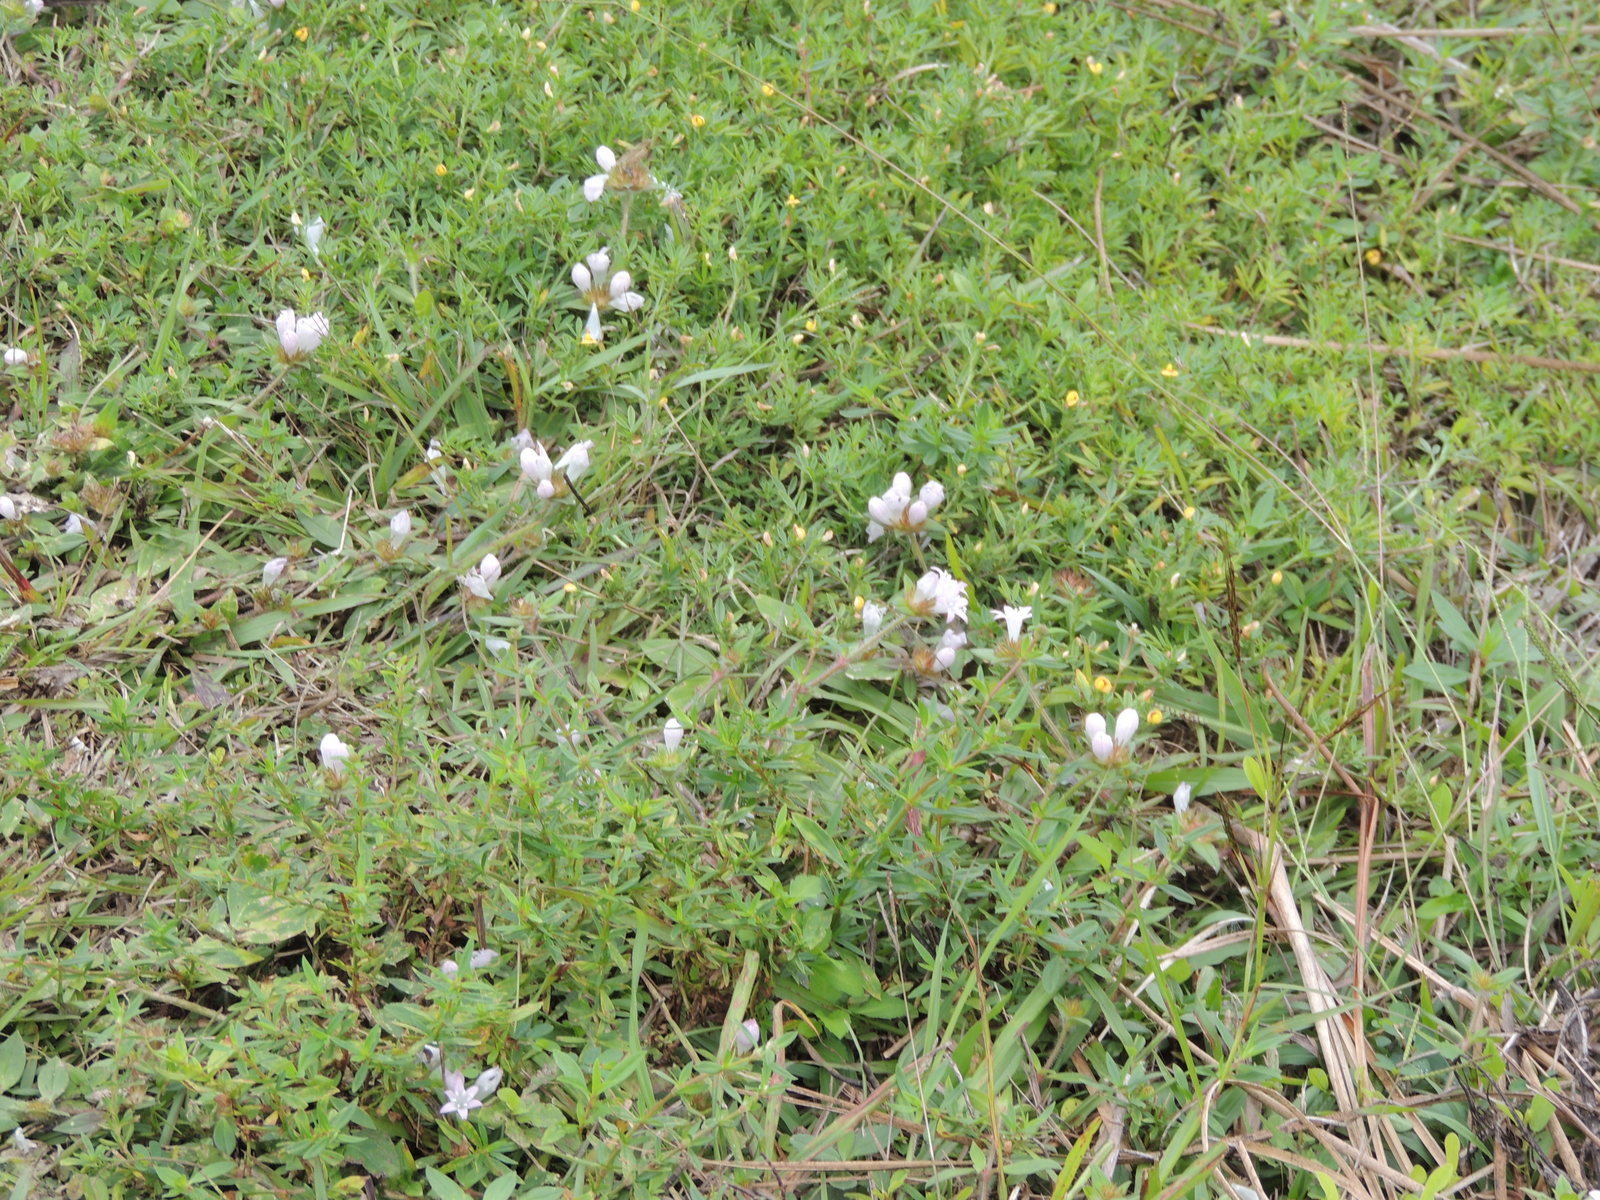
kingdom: Plantae
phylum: Tracheophyta
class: Magnoliopsida
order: Gentianales
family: Rubiaceae
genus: Richardia
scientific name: Richardia grandiflora
